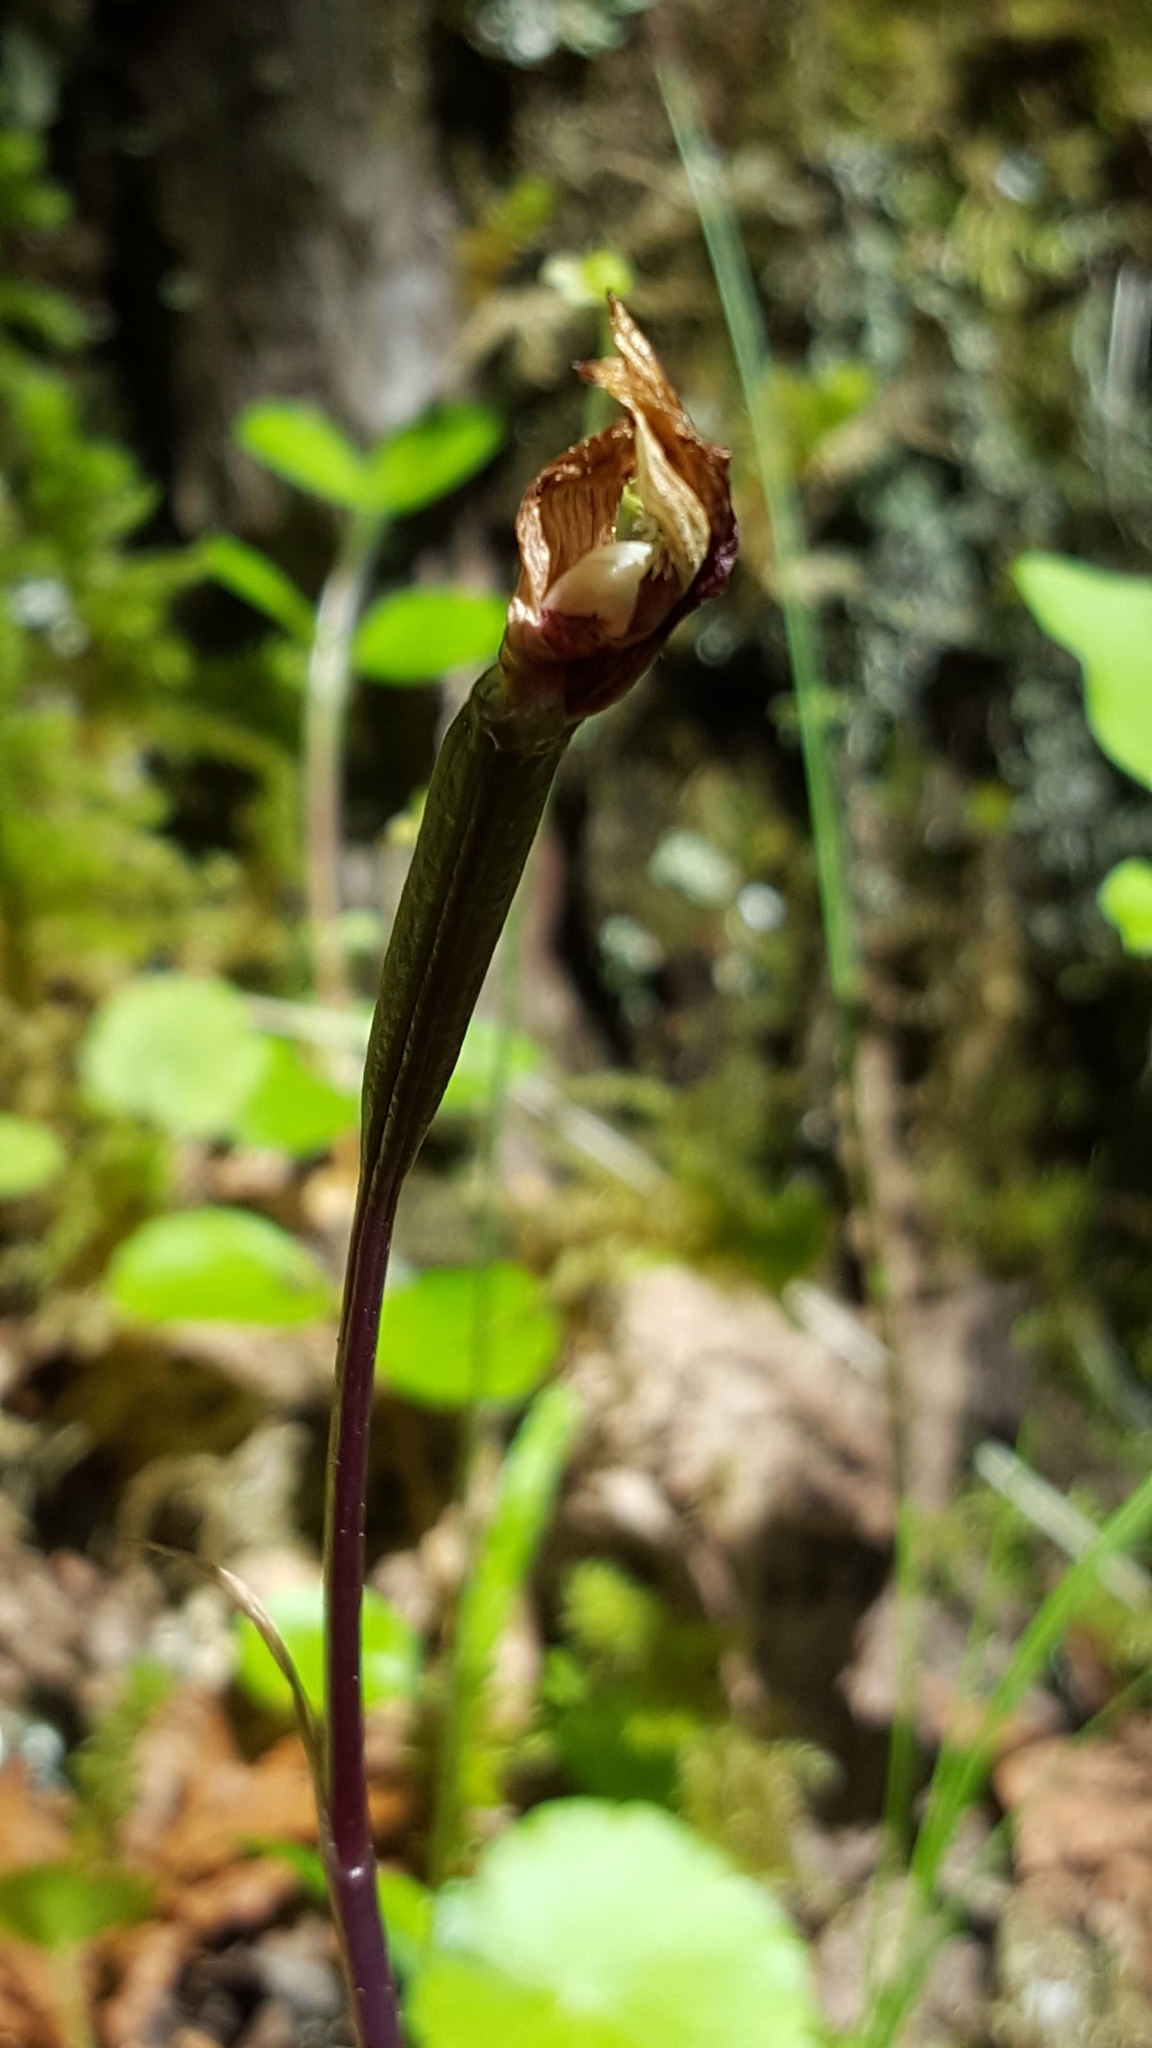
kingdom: Plantae
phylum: Tracheophyta
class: Liliopsida
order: Asparagales
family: Orchidaceae
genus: Calypso
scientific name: Calypso bulbosa
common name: Calypso
